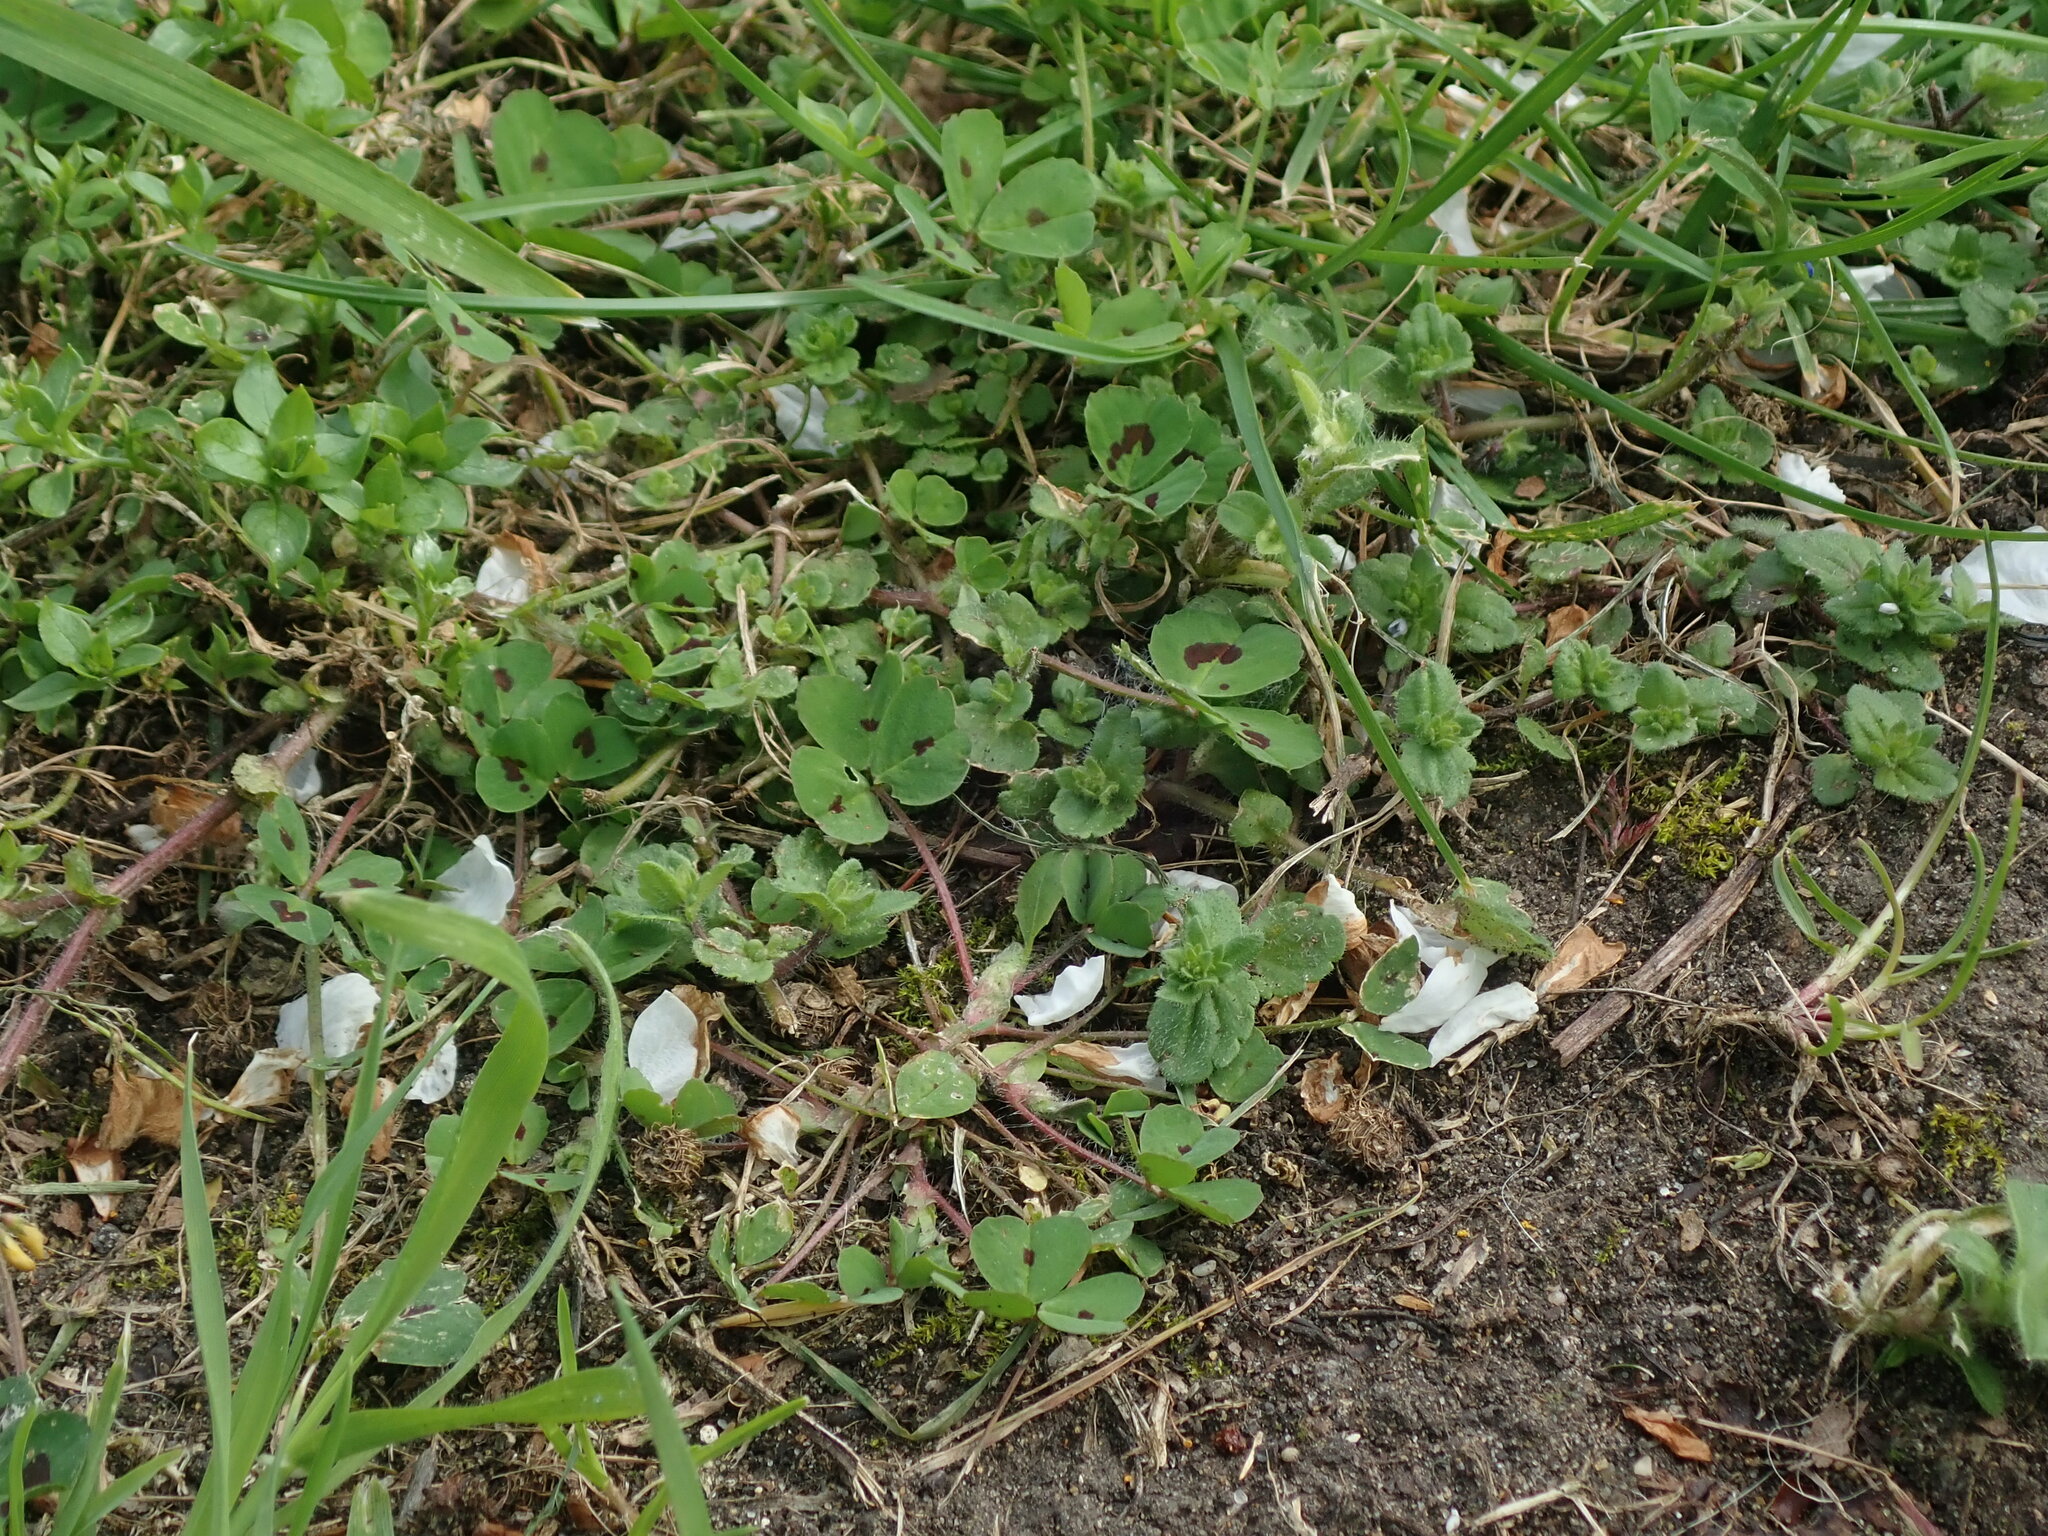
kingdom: Plantae
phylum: Tracheophyta
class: Magnoliopsida
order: Fabales
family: Fabaceae
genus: Medicago
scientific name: Medicago arabica
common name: Spotted medick
